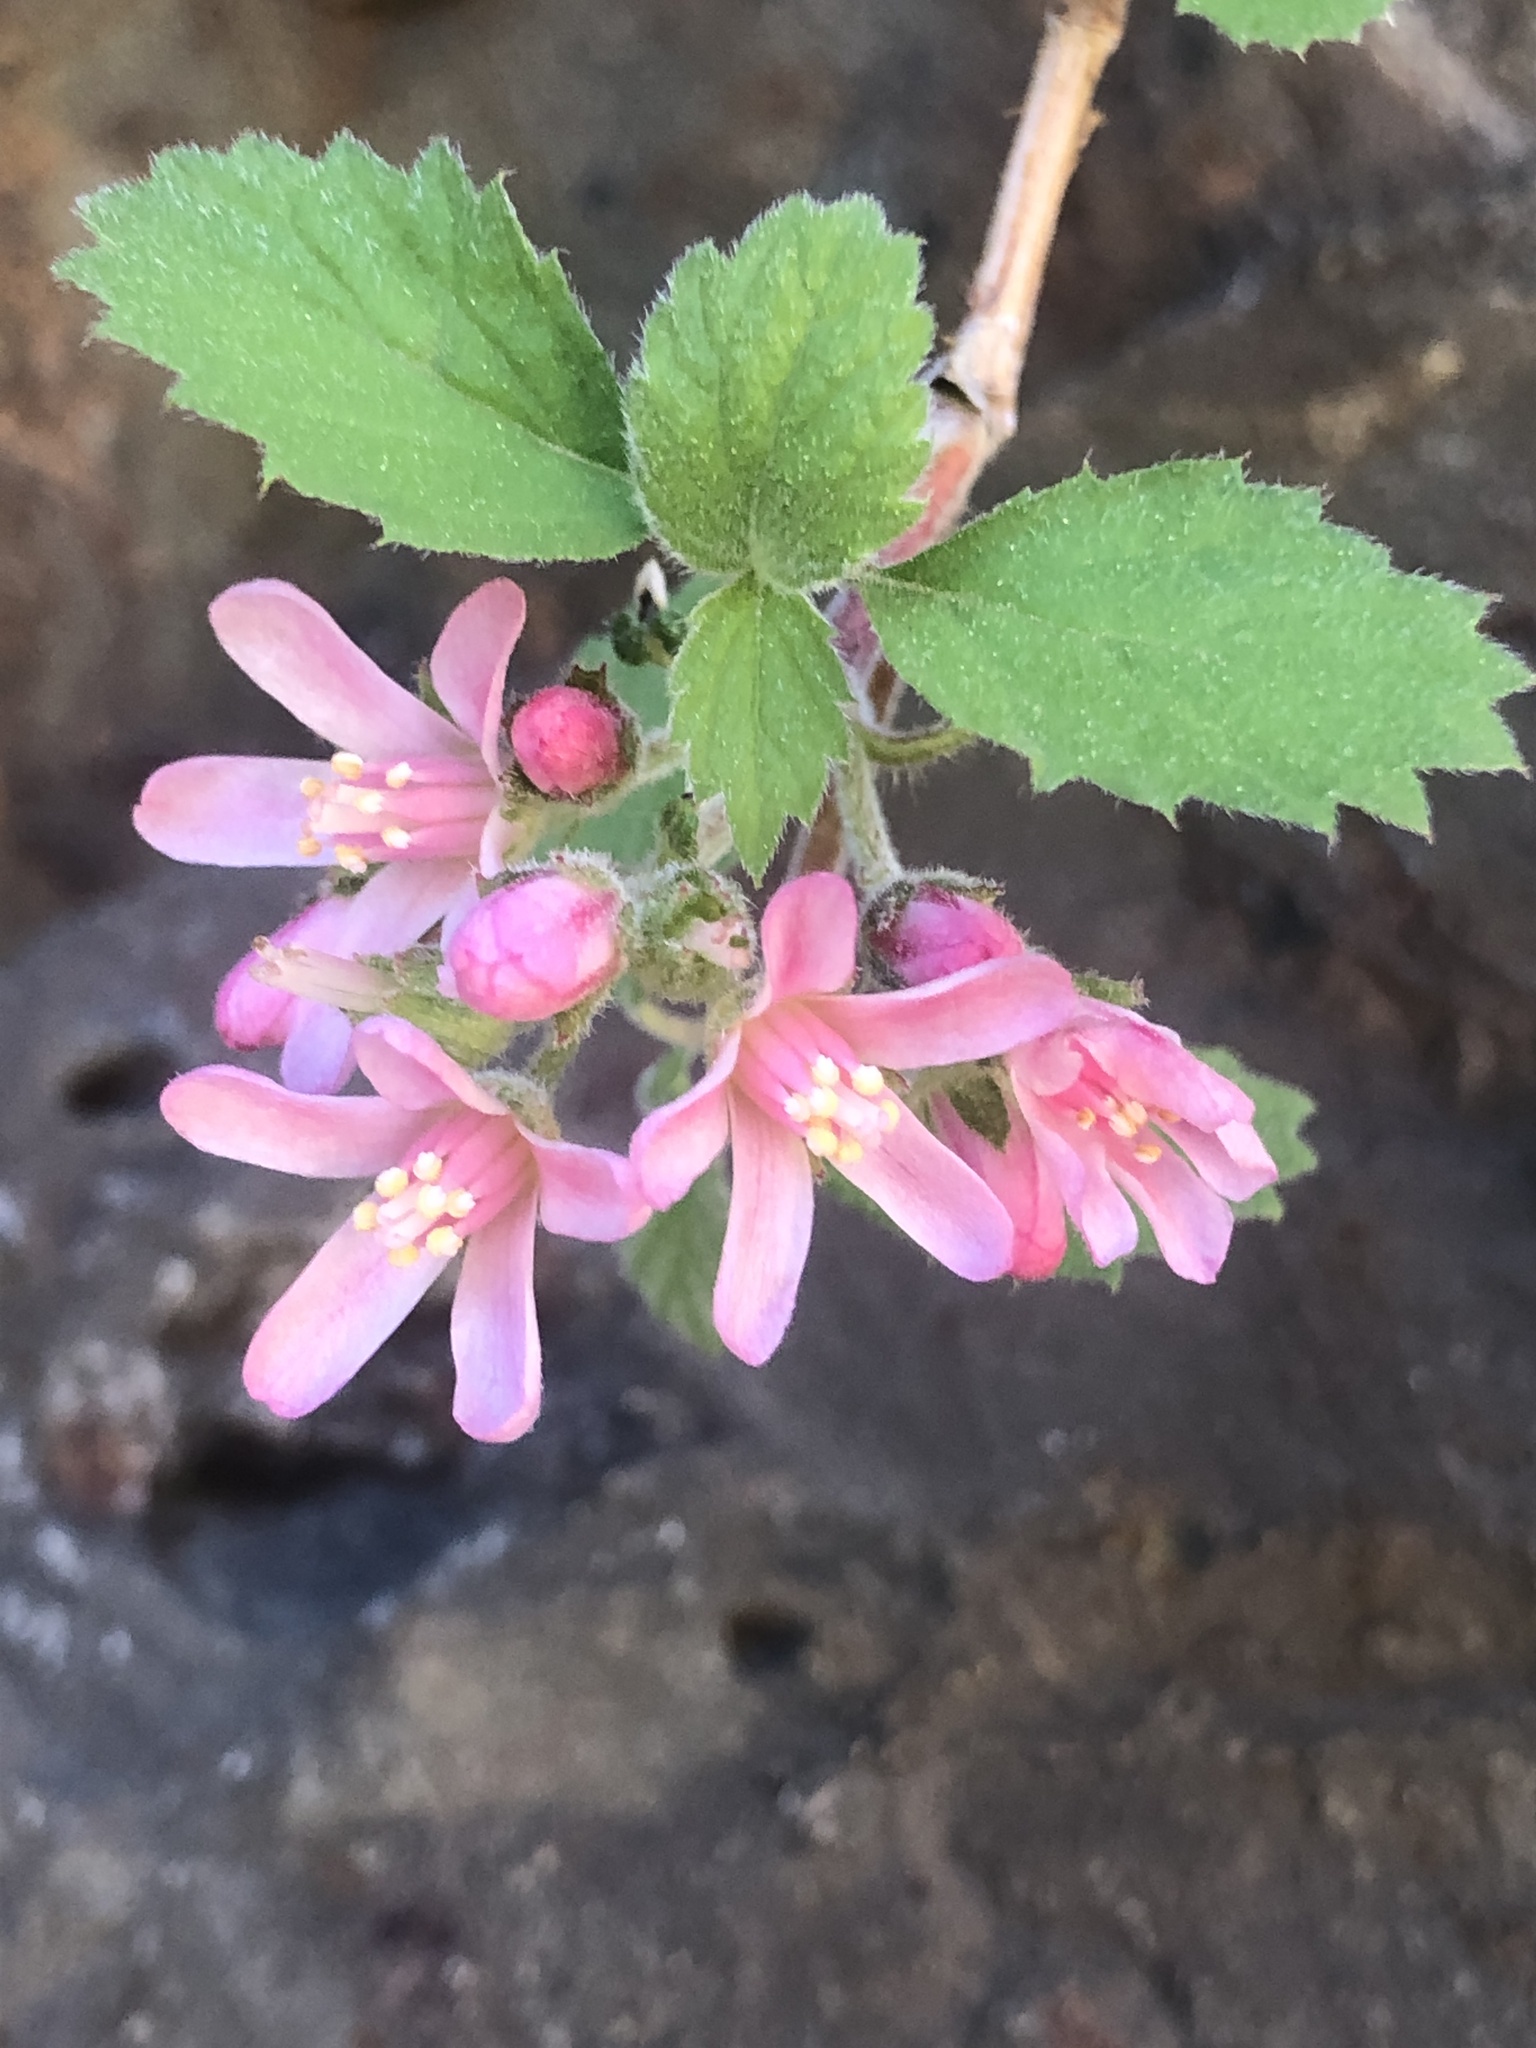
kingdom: Plantae
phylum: Tracheophyta
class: Magnoliopsida
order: Cornales
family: Hydrangeaceae
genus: Jamesia
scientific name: Jamesia americana
